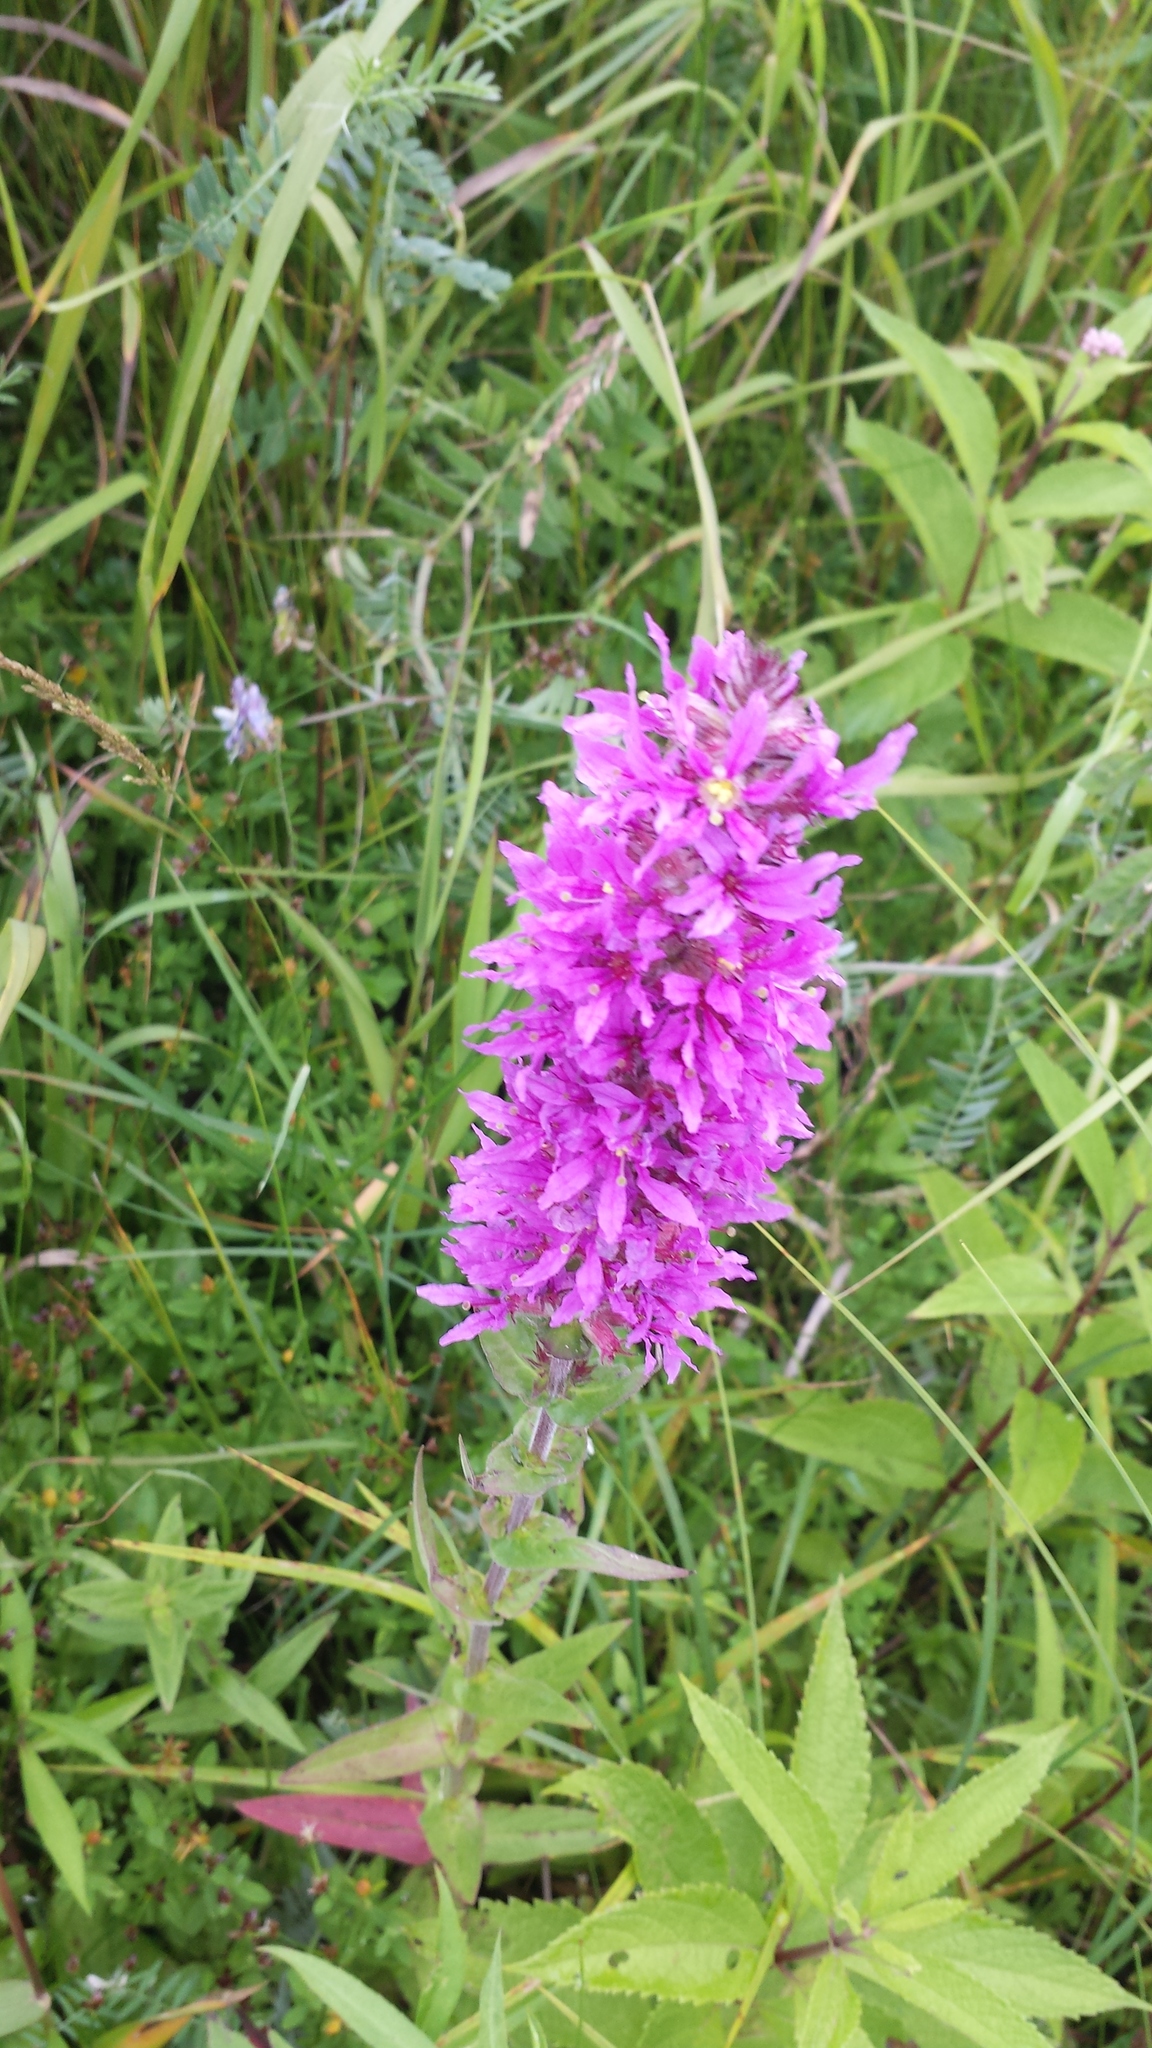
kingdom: Plantae
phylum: Tracheophyta
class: Magnoliopsida
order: Myrtales
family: Lythraceae
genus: Lythrum
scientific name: Lythrum salicaria
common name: Purple loosestrife
